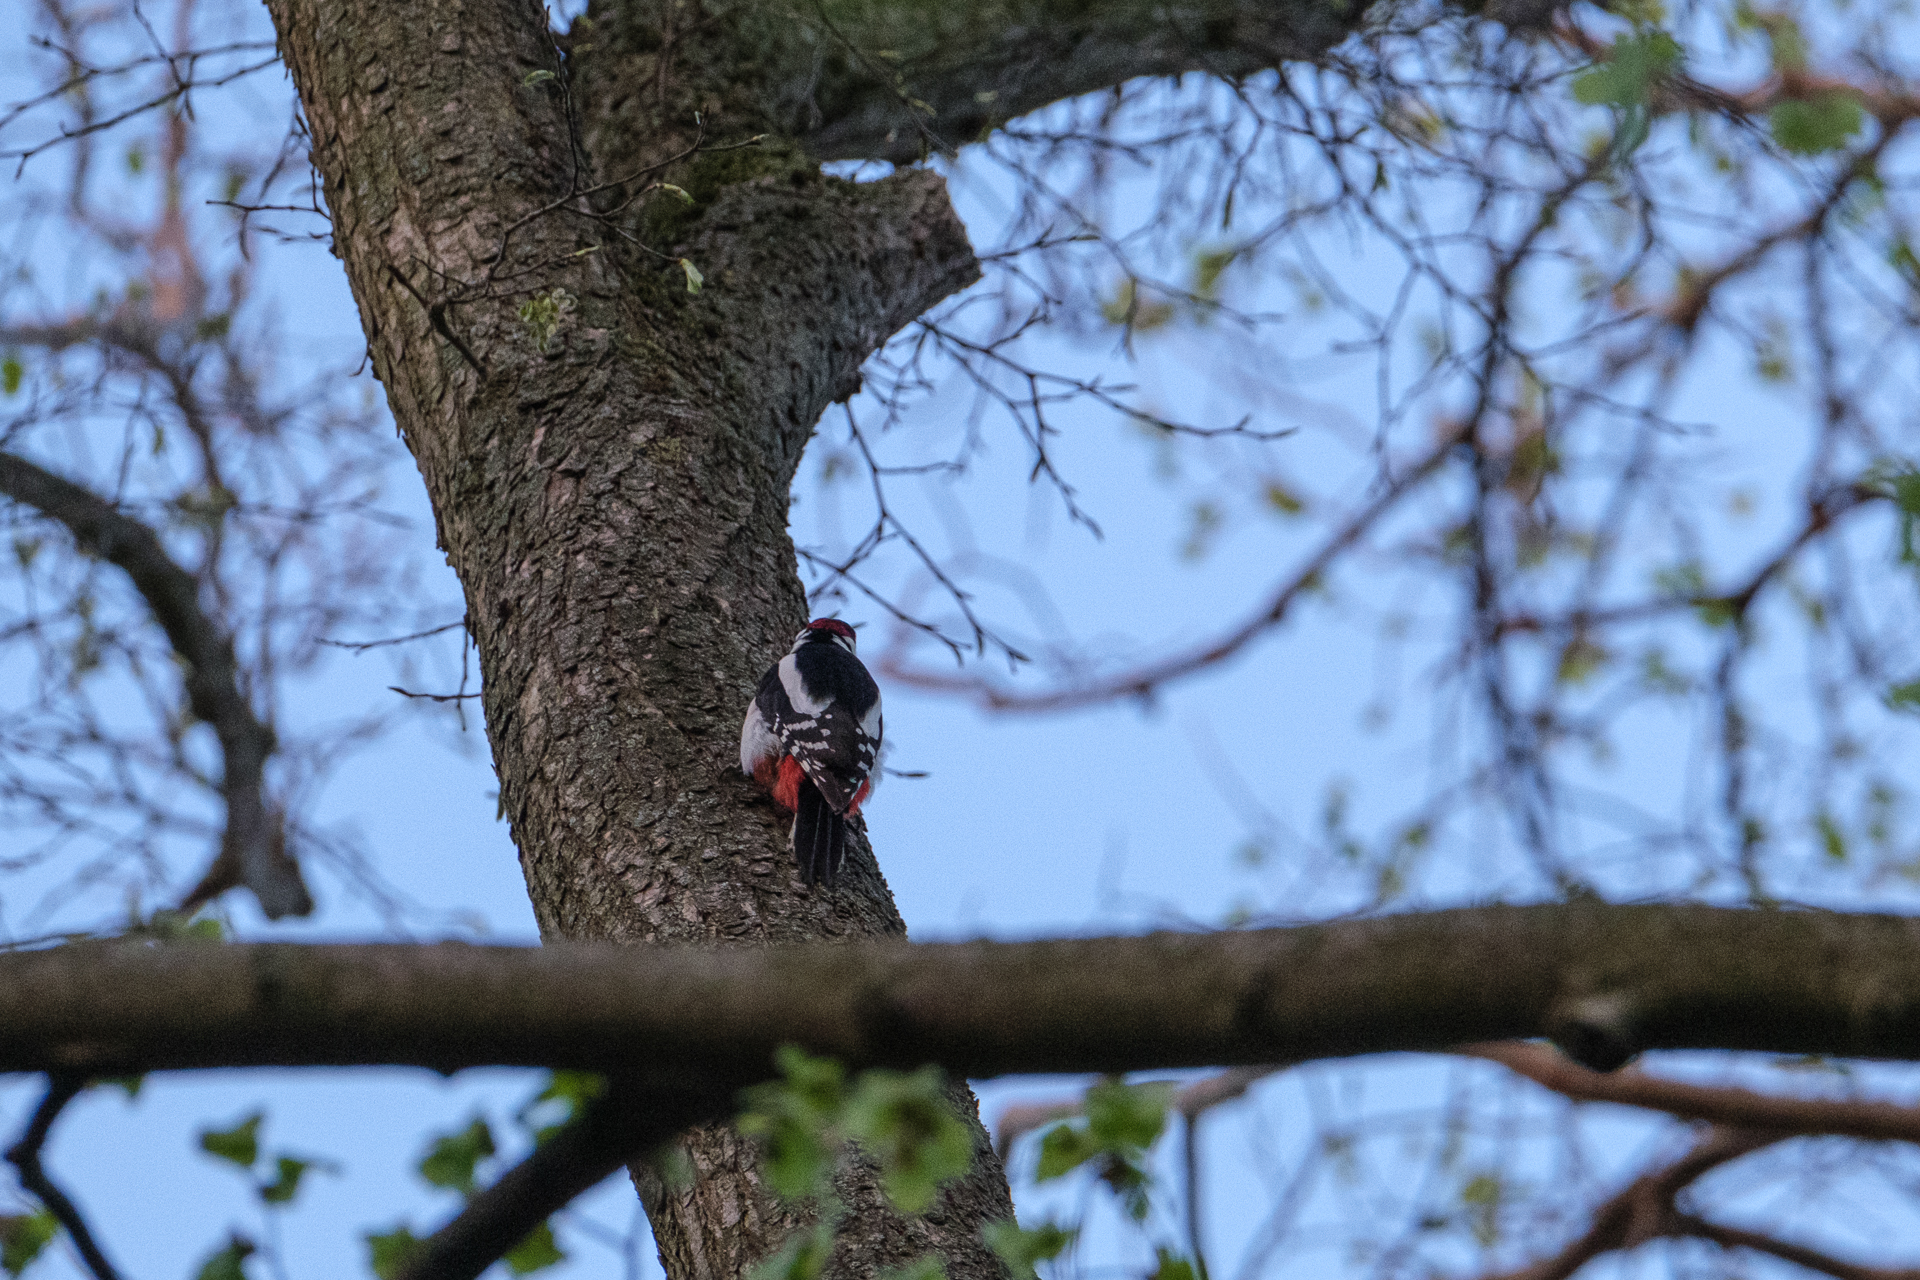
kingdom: Animalia
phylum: Chordata
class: Aves
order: Piciformes
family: Picidae
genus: Dendrocopos
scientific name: Dendrocopos major
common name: Great spotted woodpecker
